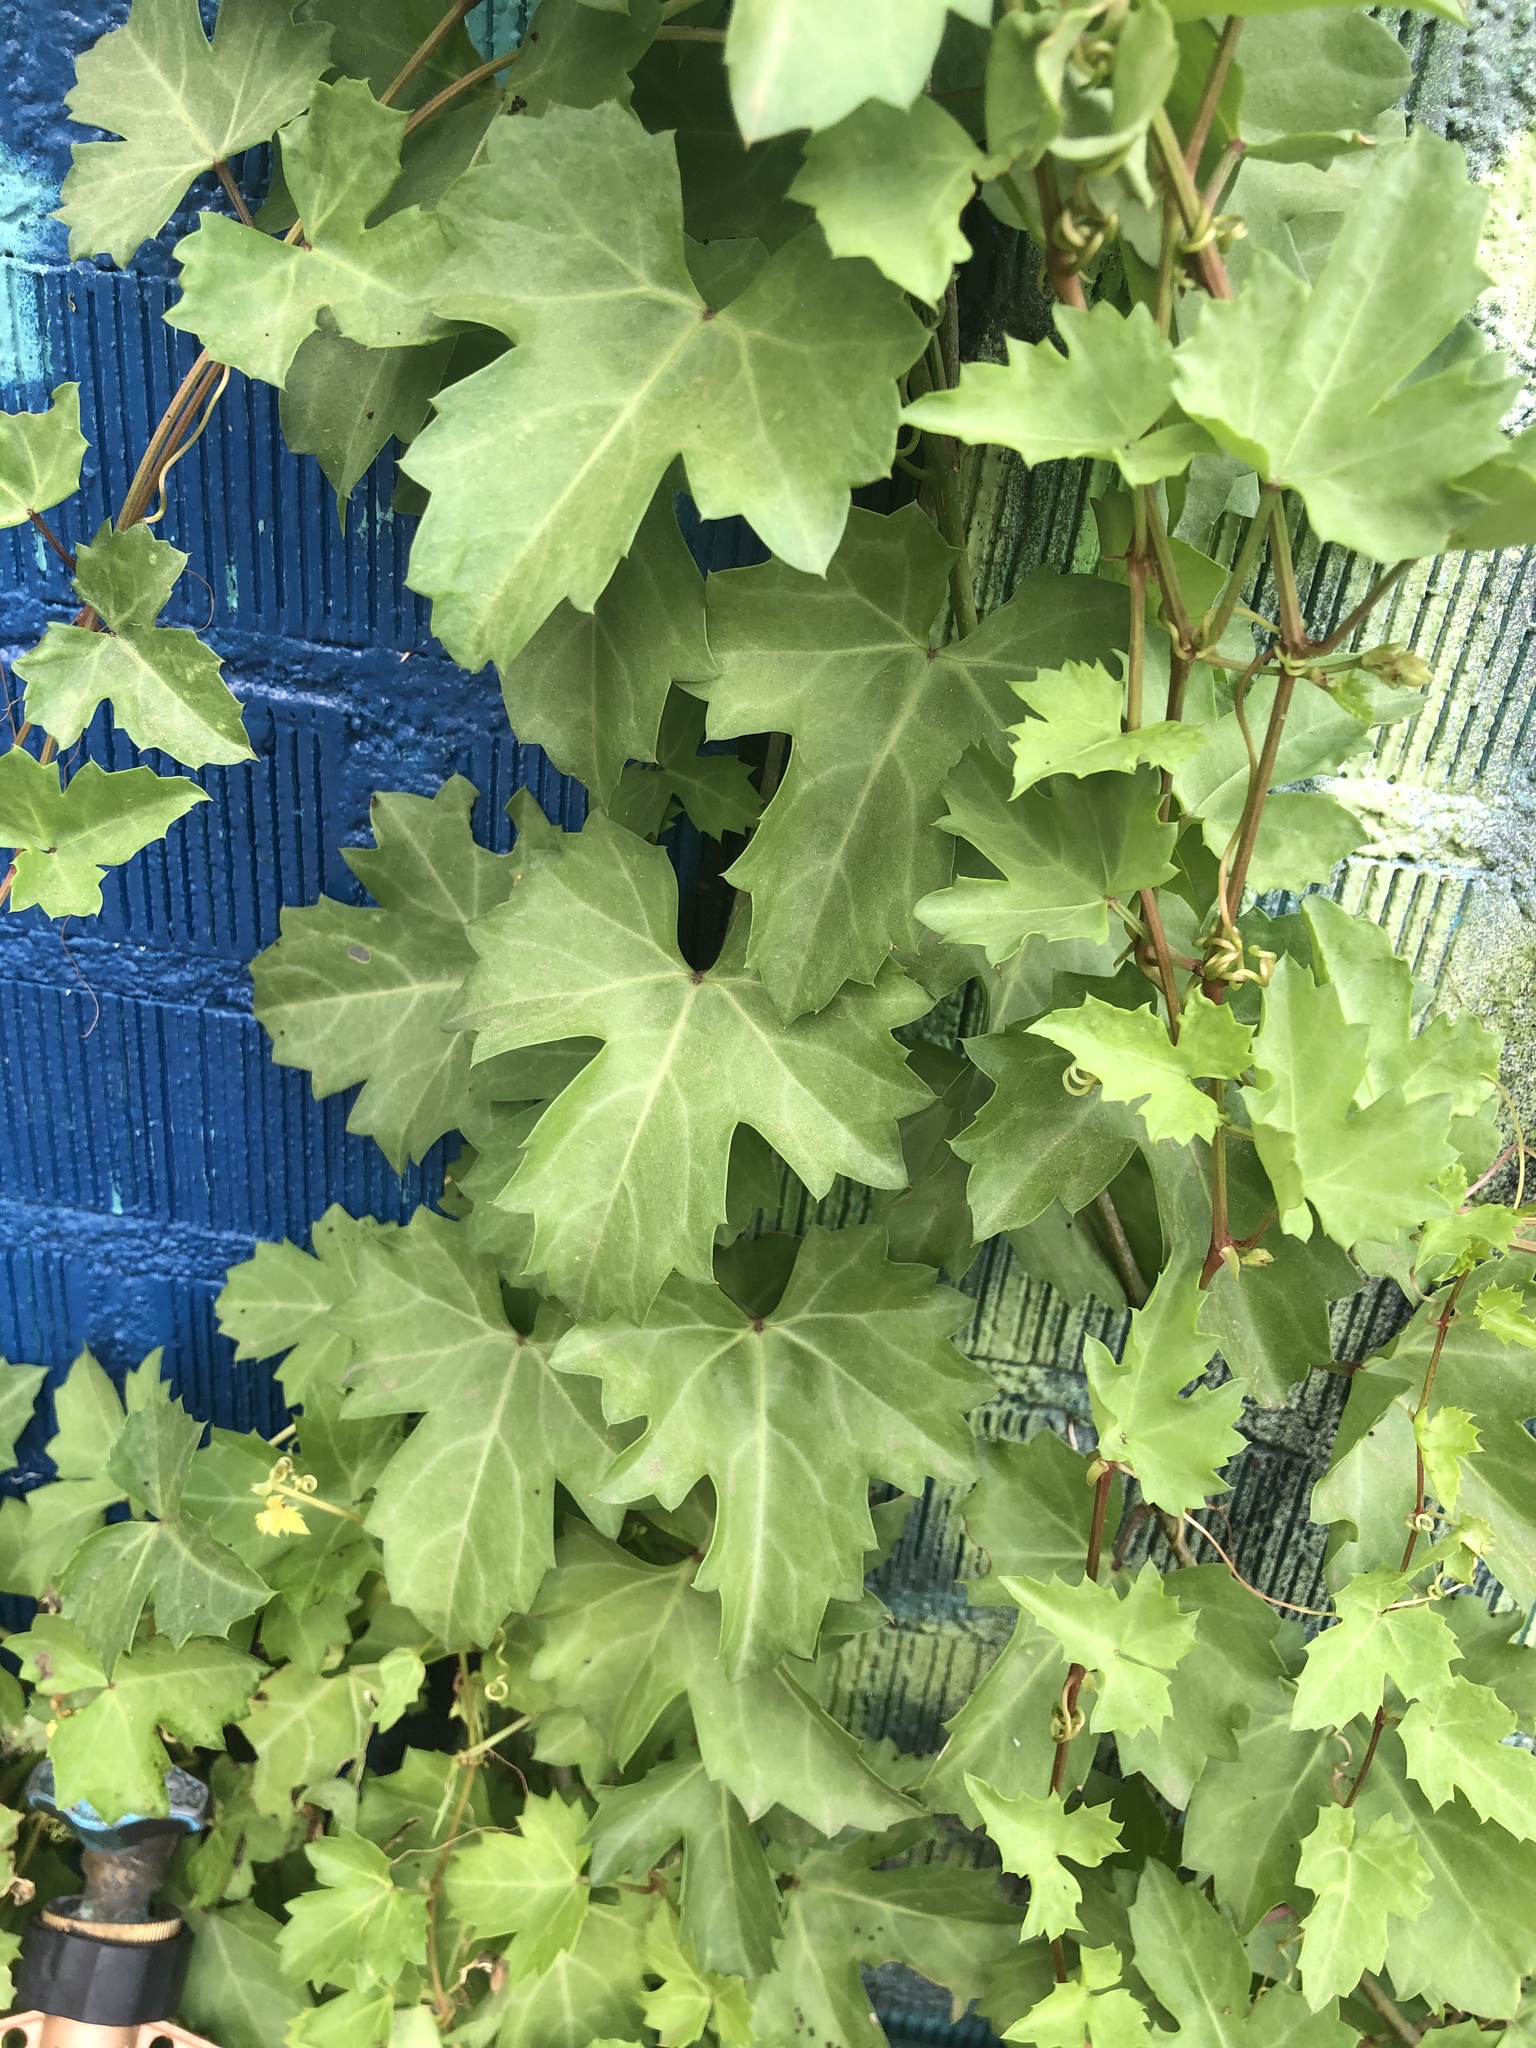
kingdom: Plantae
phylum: Tracheophyta
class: Magnoliopsida
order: Vitales
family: Vitaceae
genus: Cissus
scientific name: Cissus trifoliata
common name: Vine-sorrel
